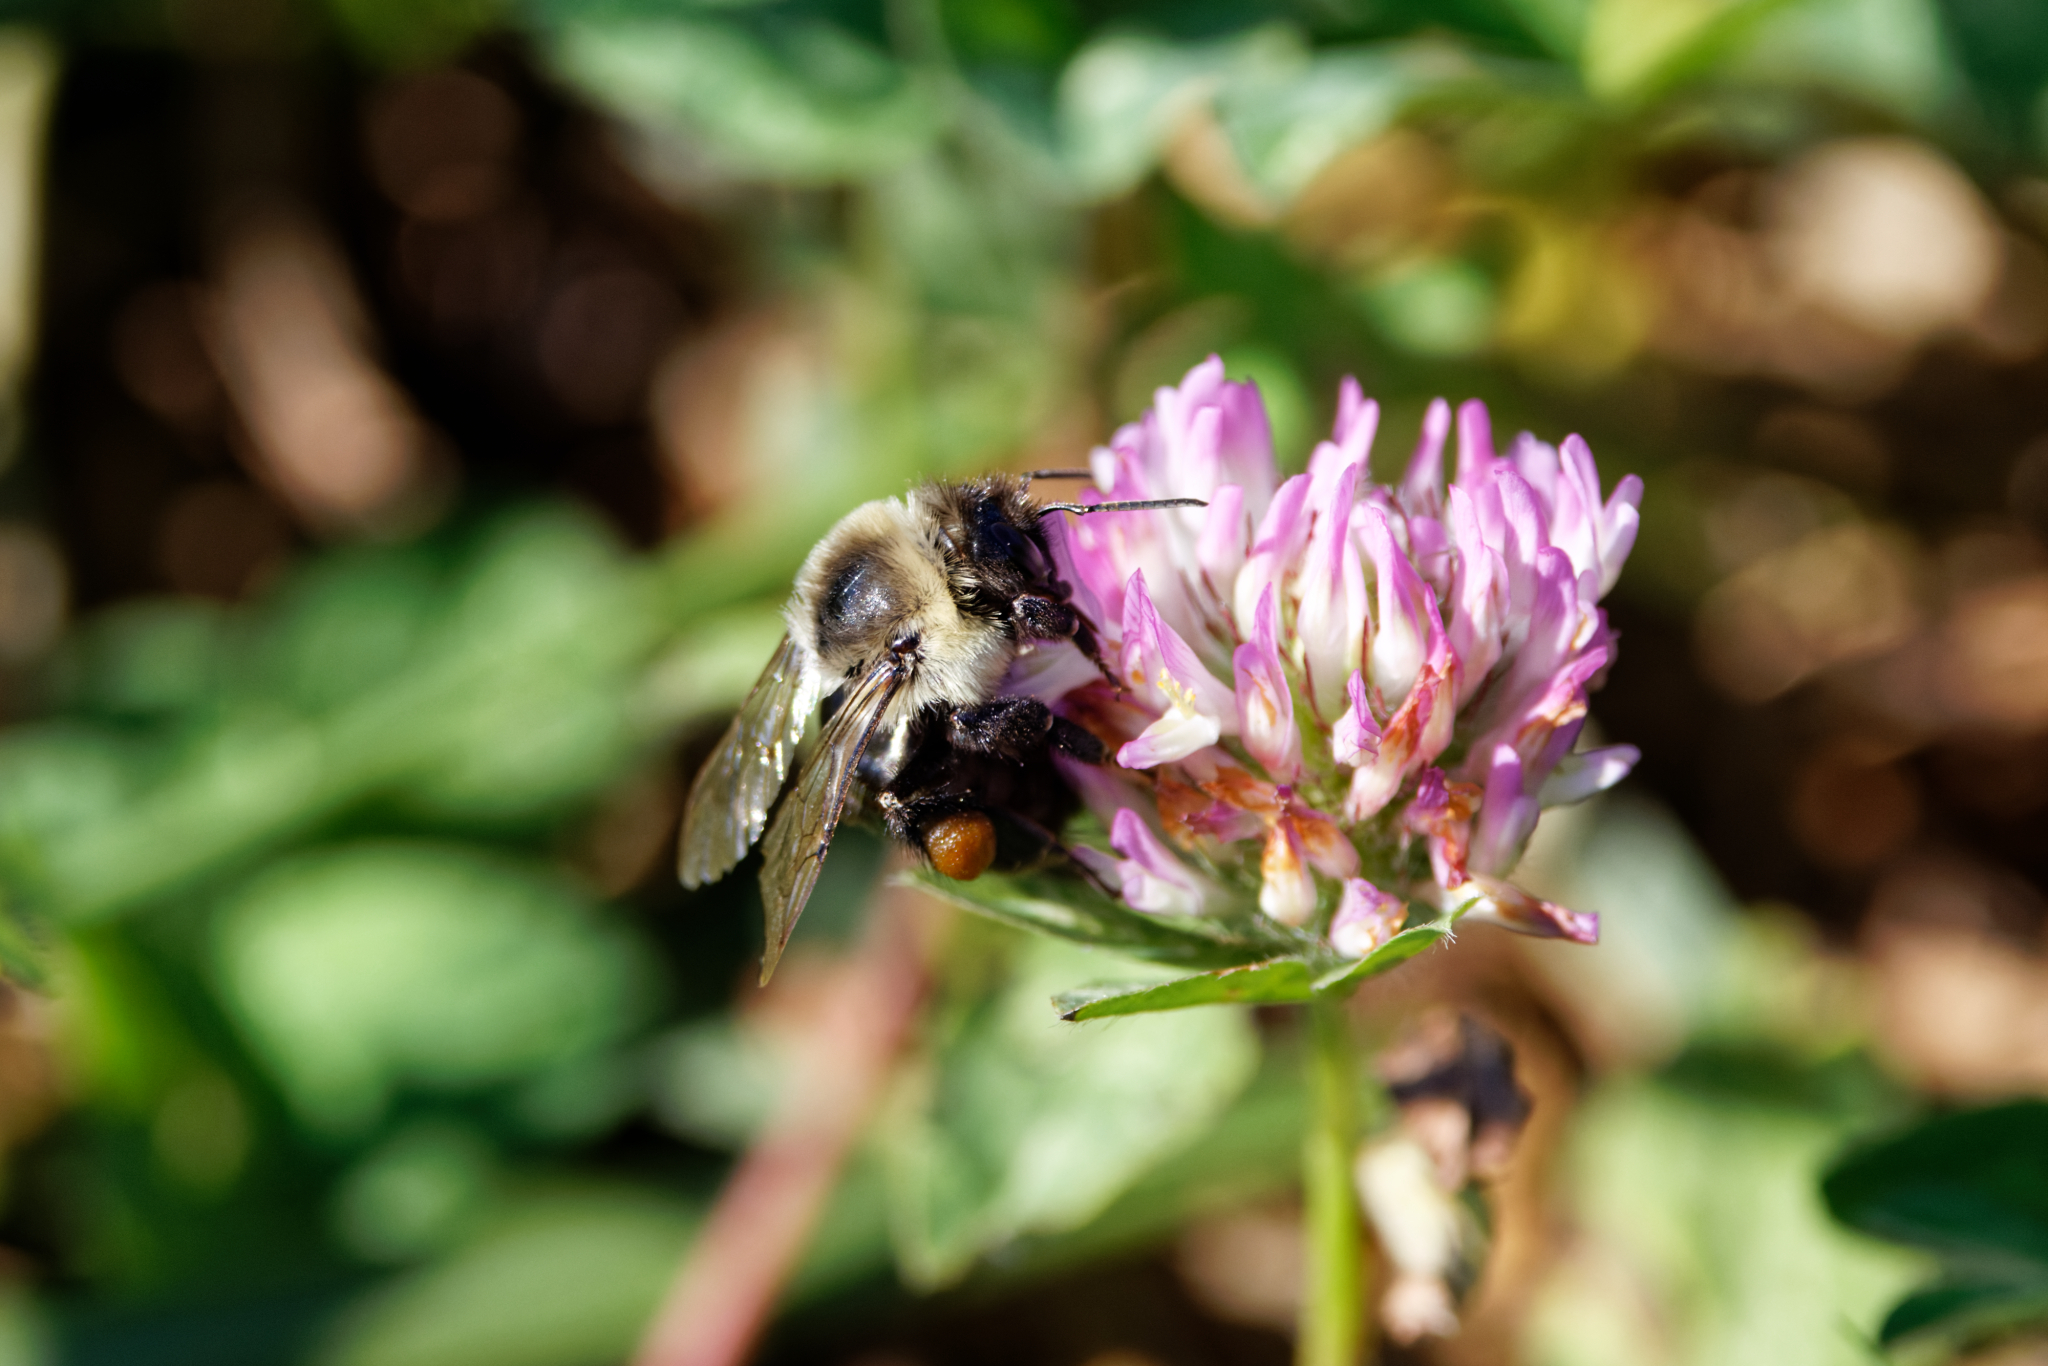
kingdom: Animalia
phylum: Arthropoda
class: Insecta
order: Hymenoptera
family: Apidae
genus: Bombus
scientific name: Bombus impatiens
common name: Common eastern bumble bee
